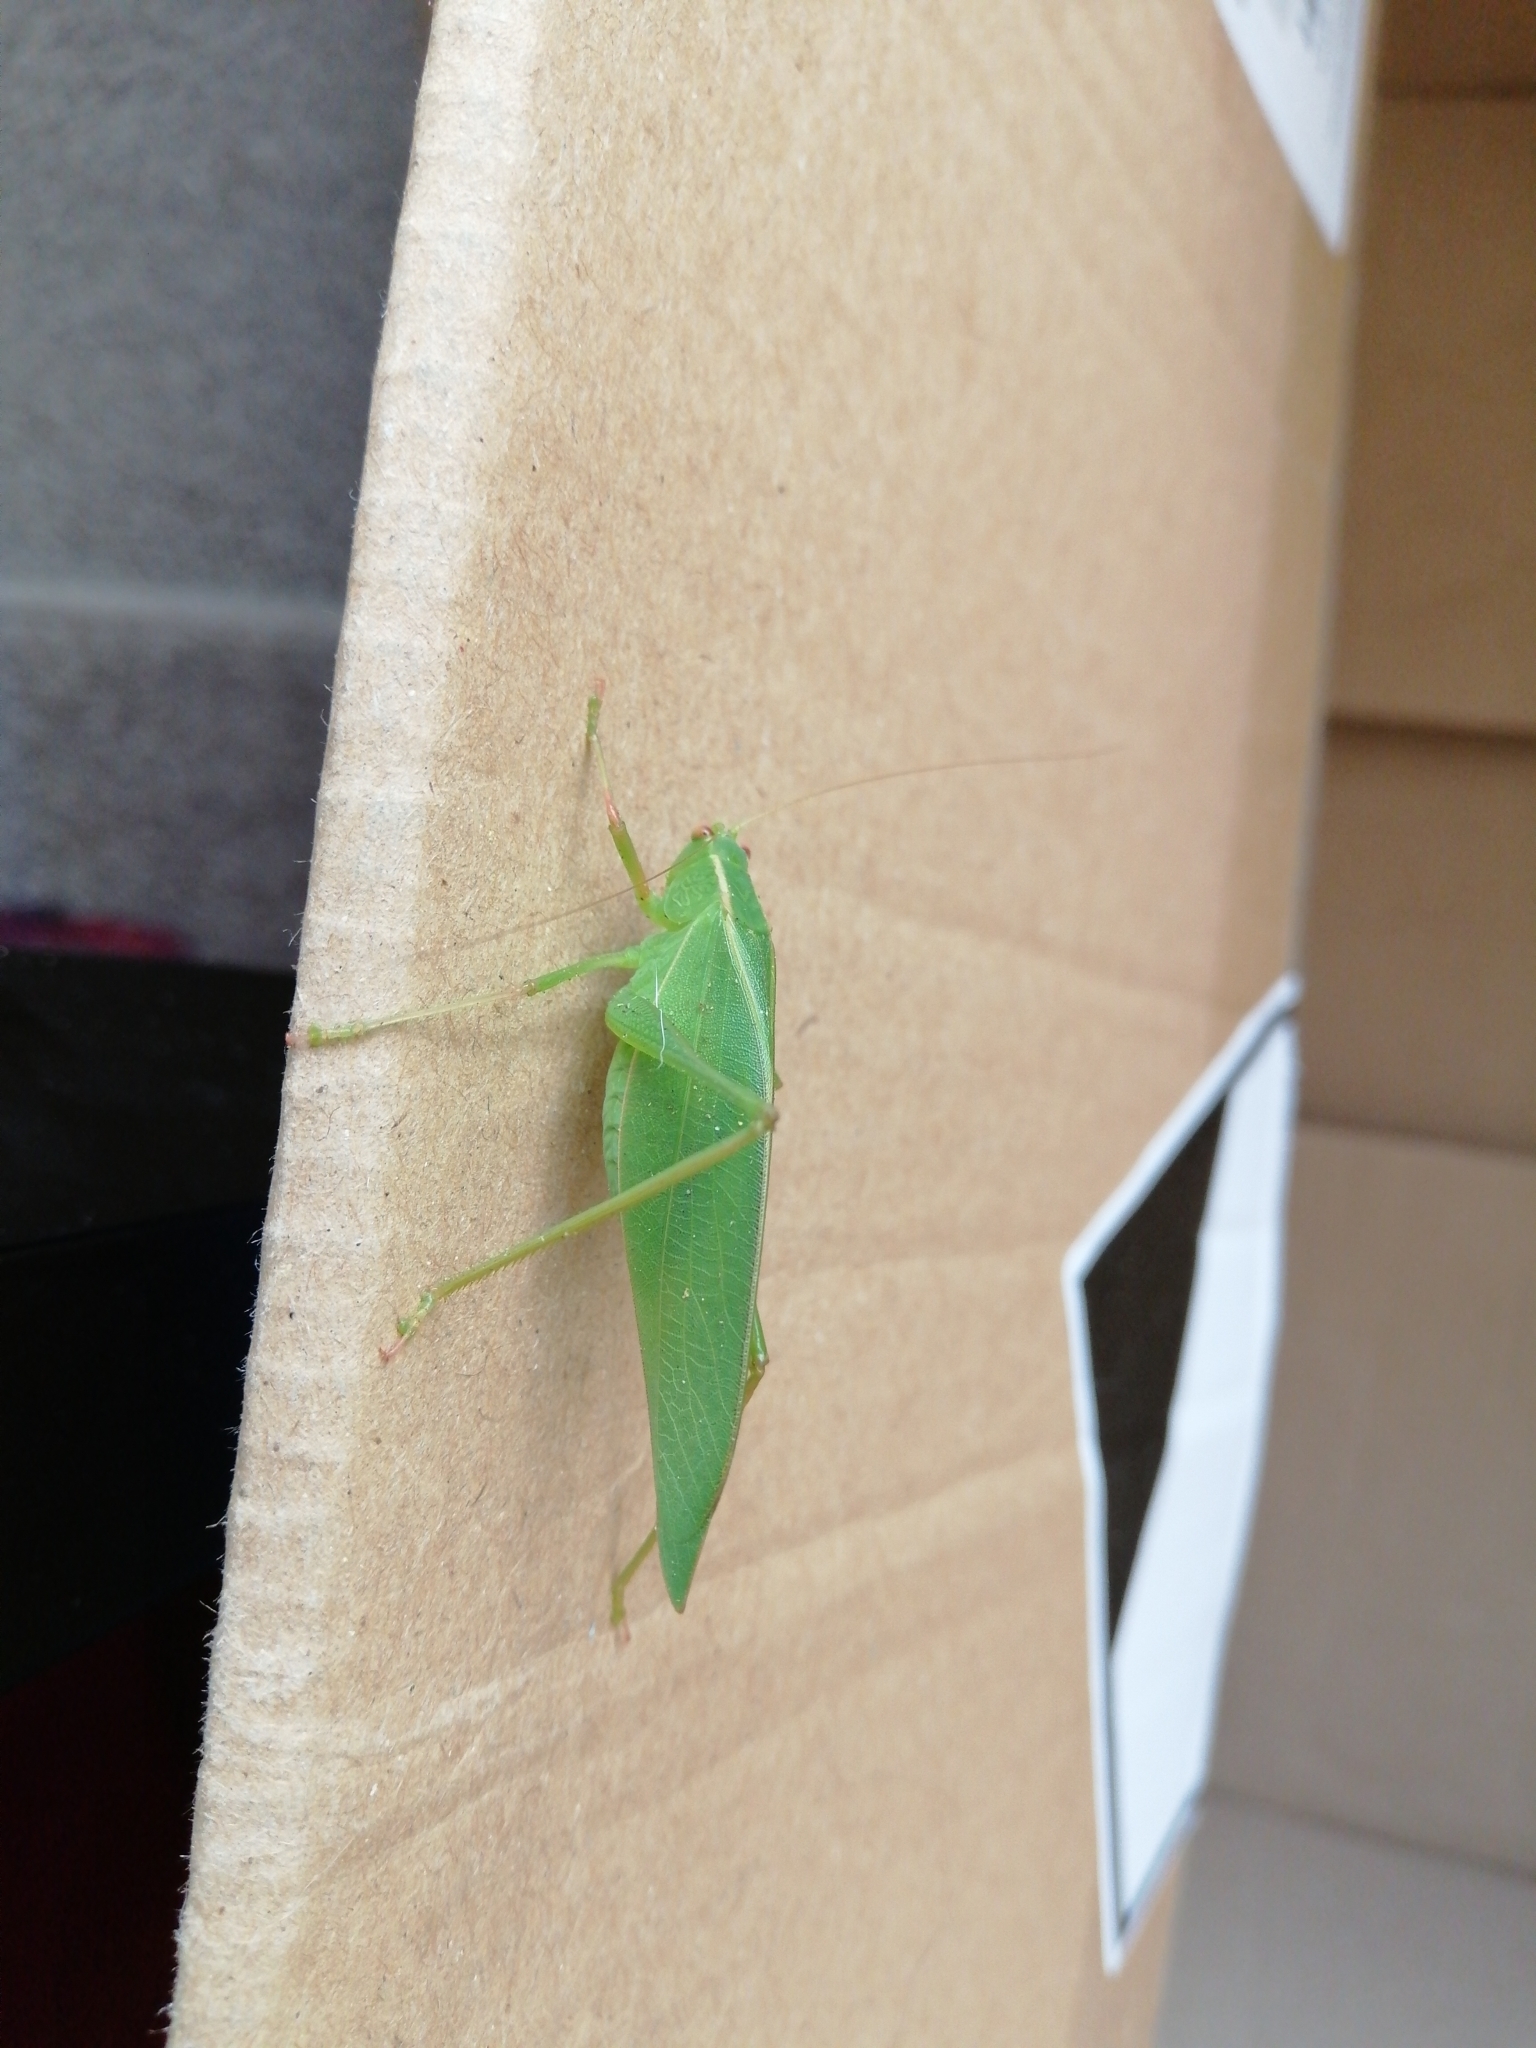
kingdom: Animalia
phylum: Arthropoda
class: Insecta
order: Orthoptera
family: Tettigoniidae
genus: Caedicia
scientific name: Caedicia simplex
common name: Common garden katydid
